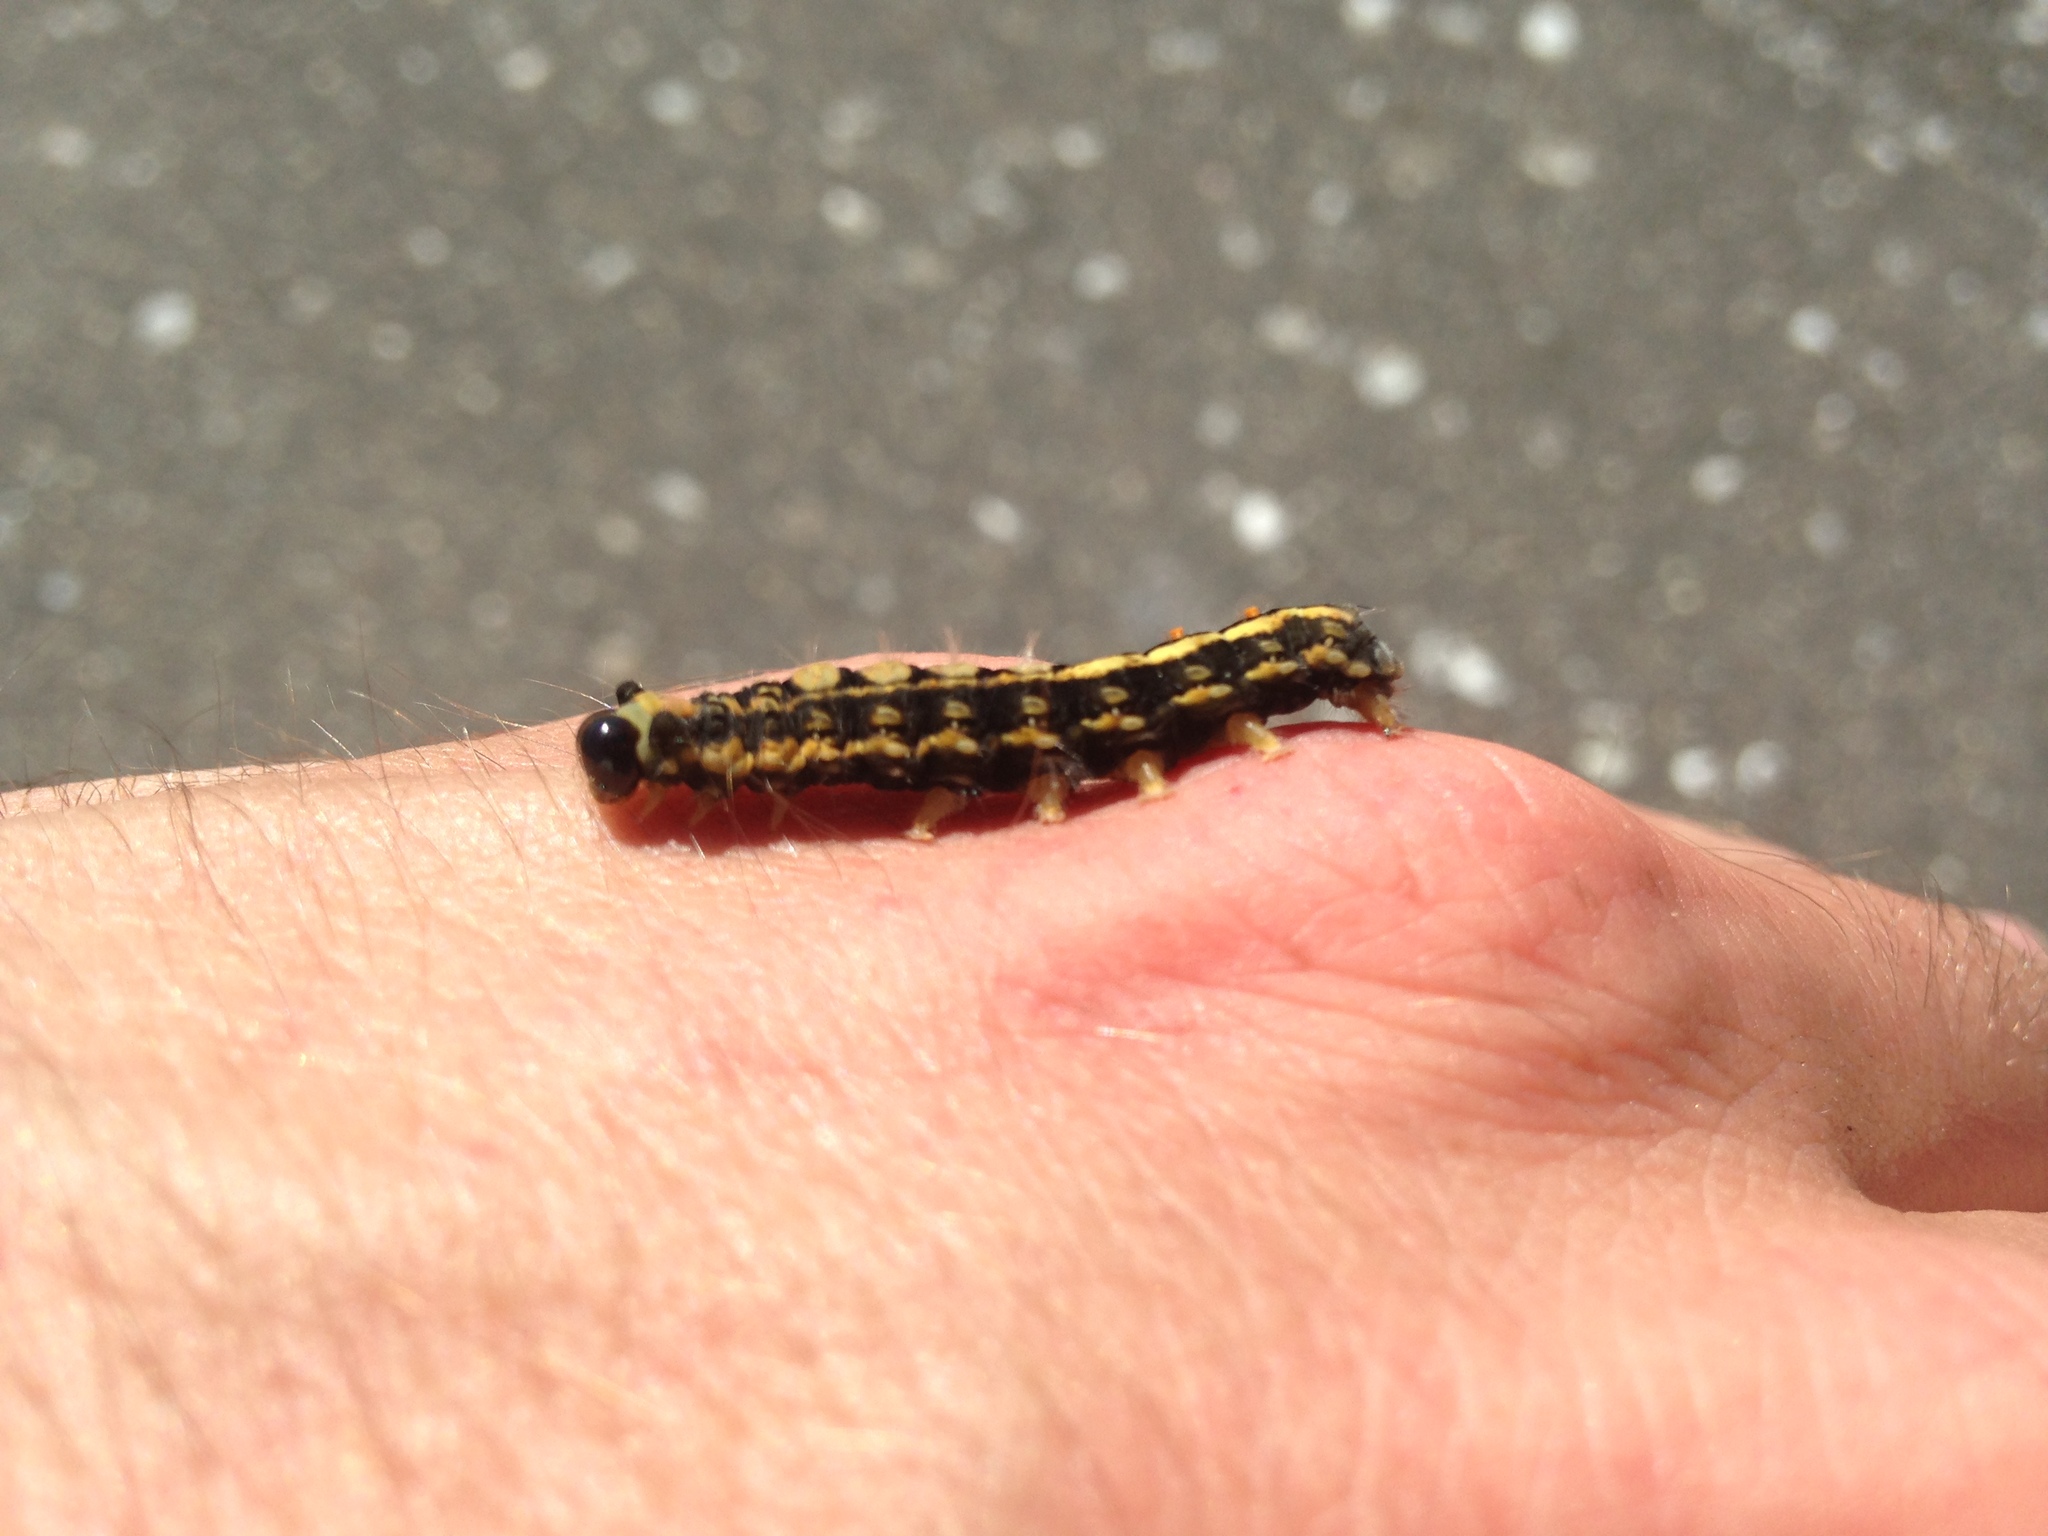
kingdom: Animalia
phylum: Arthropoda
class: Insecta
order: Lepidoptera
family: Erebidae
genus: Orgyia
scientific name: Orgyia leucostigma
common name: White-marked tussock moth
